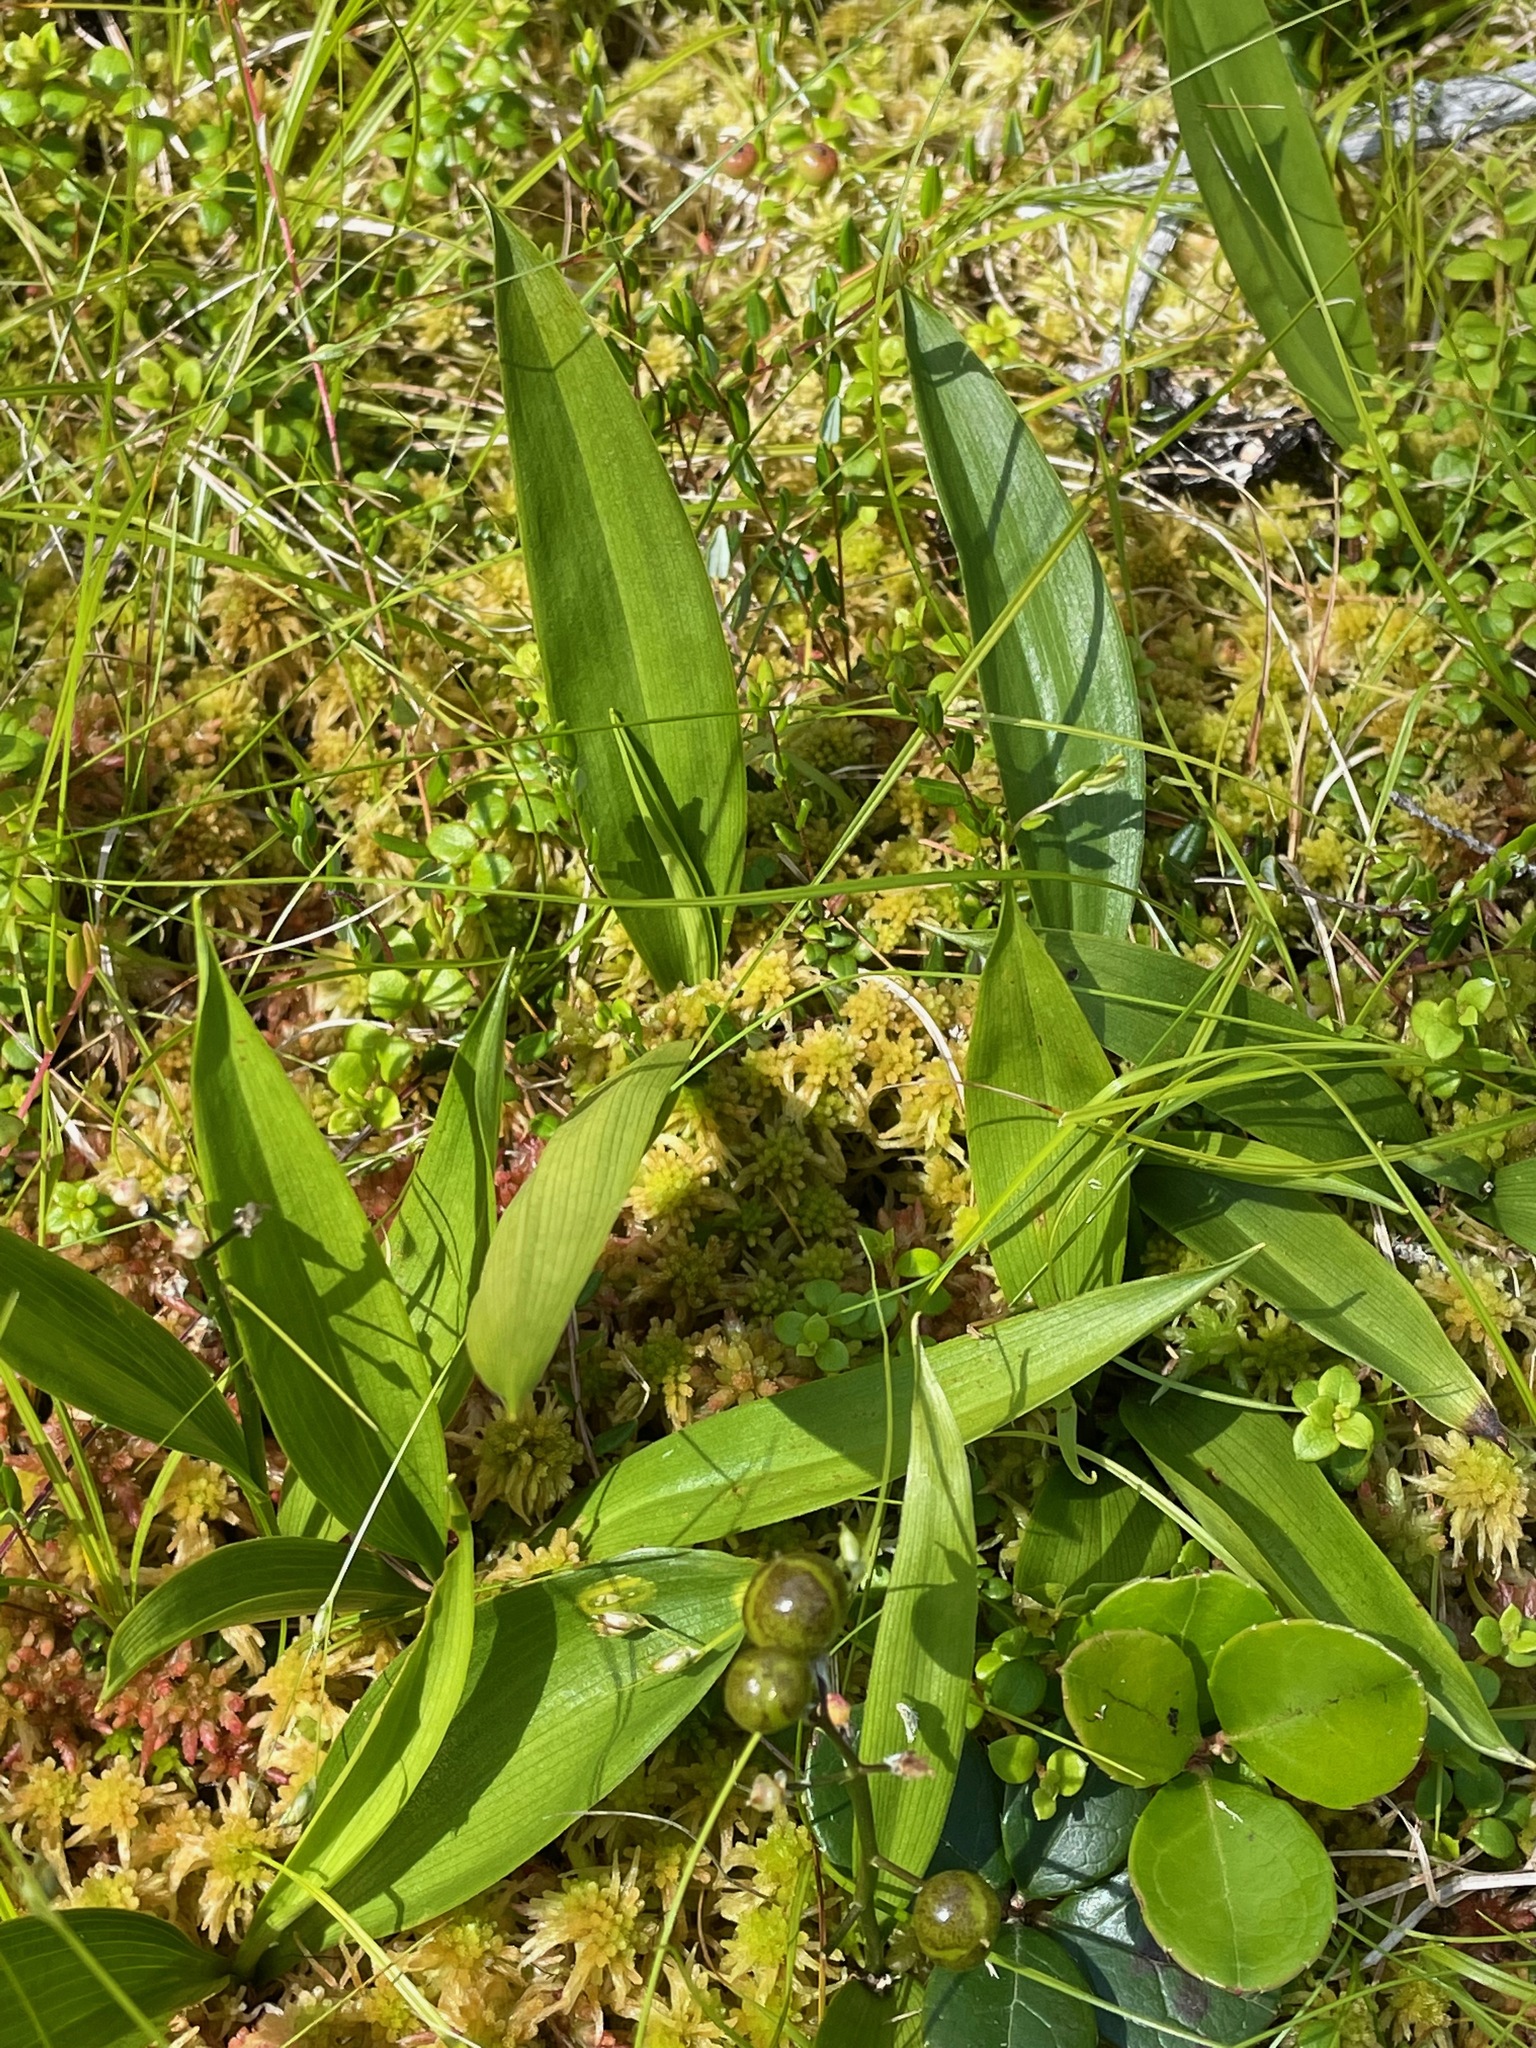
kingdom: Plantae
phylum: Tracheophyta
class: Liliopsida
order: Asparagales
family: Asparagaceae
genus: Maianthemum
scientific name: Maianthemum trifolium
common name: Swamp false solomon's seal
